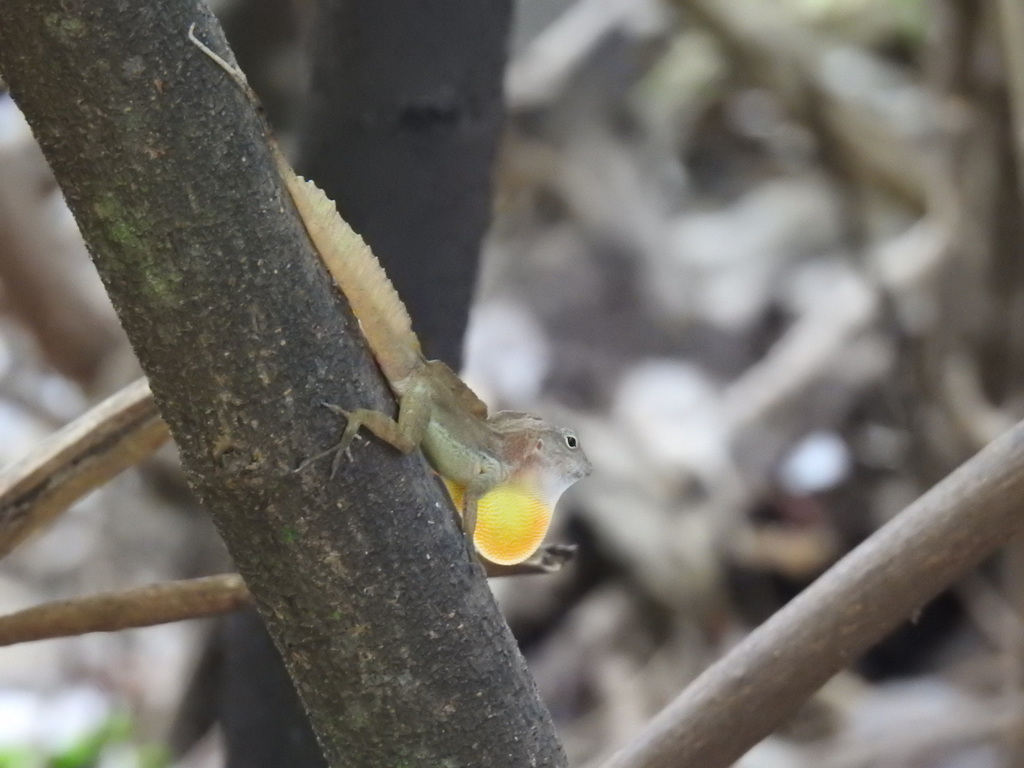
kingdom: Animalia
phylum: Chordata
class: Squamata
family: Dactyloidae
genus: Anolis
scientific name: Anolis cristatellus
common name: Crested anole
